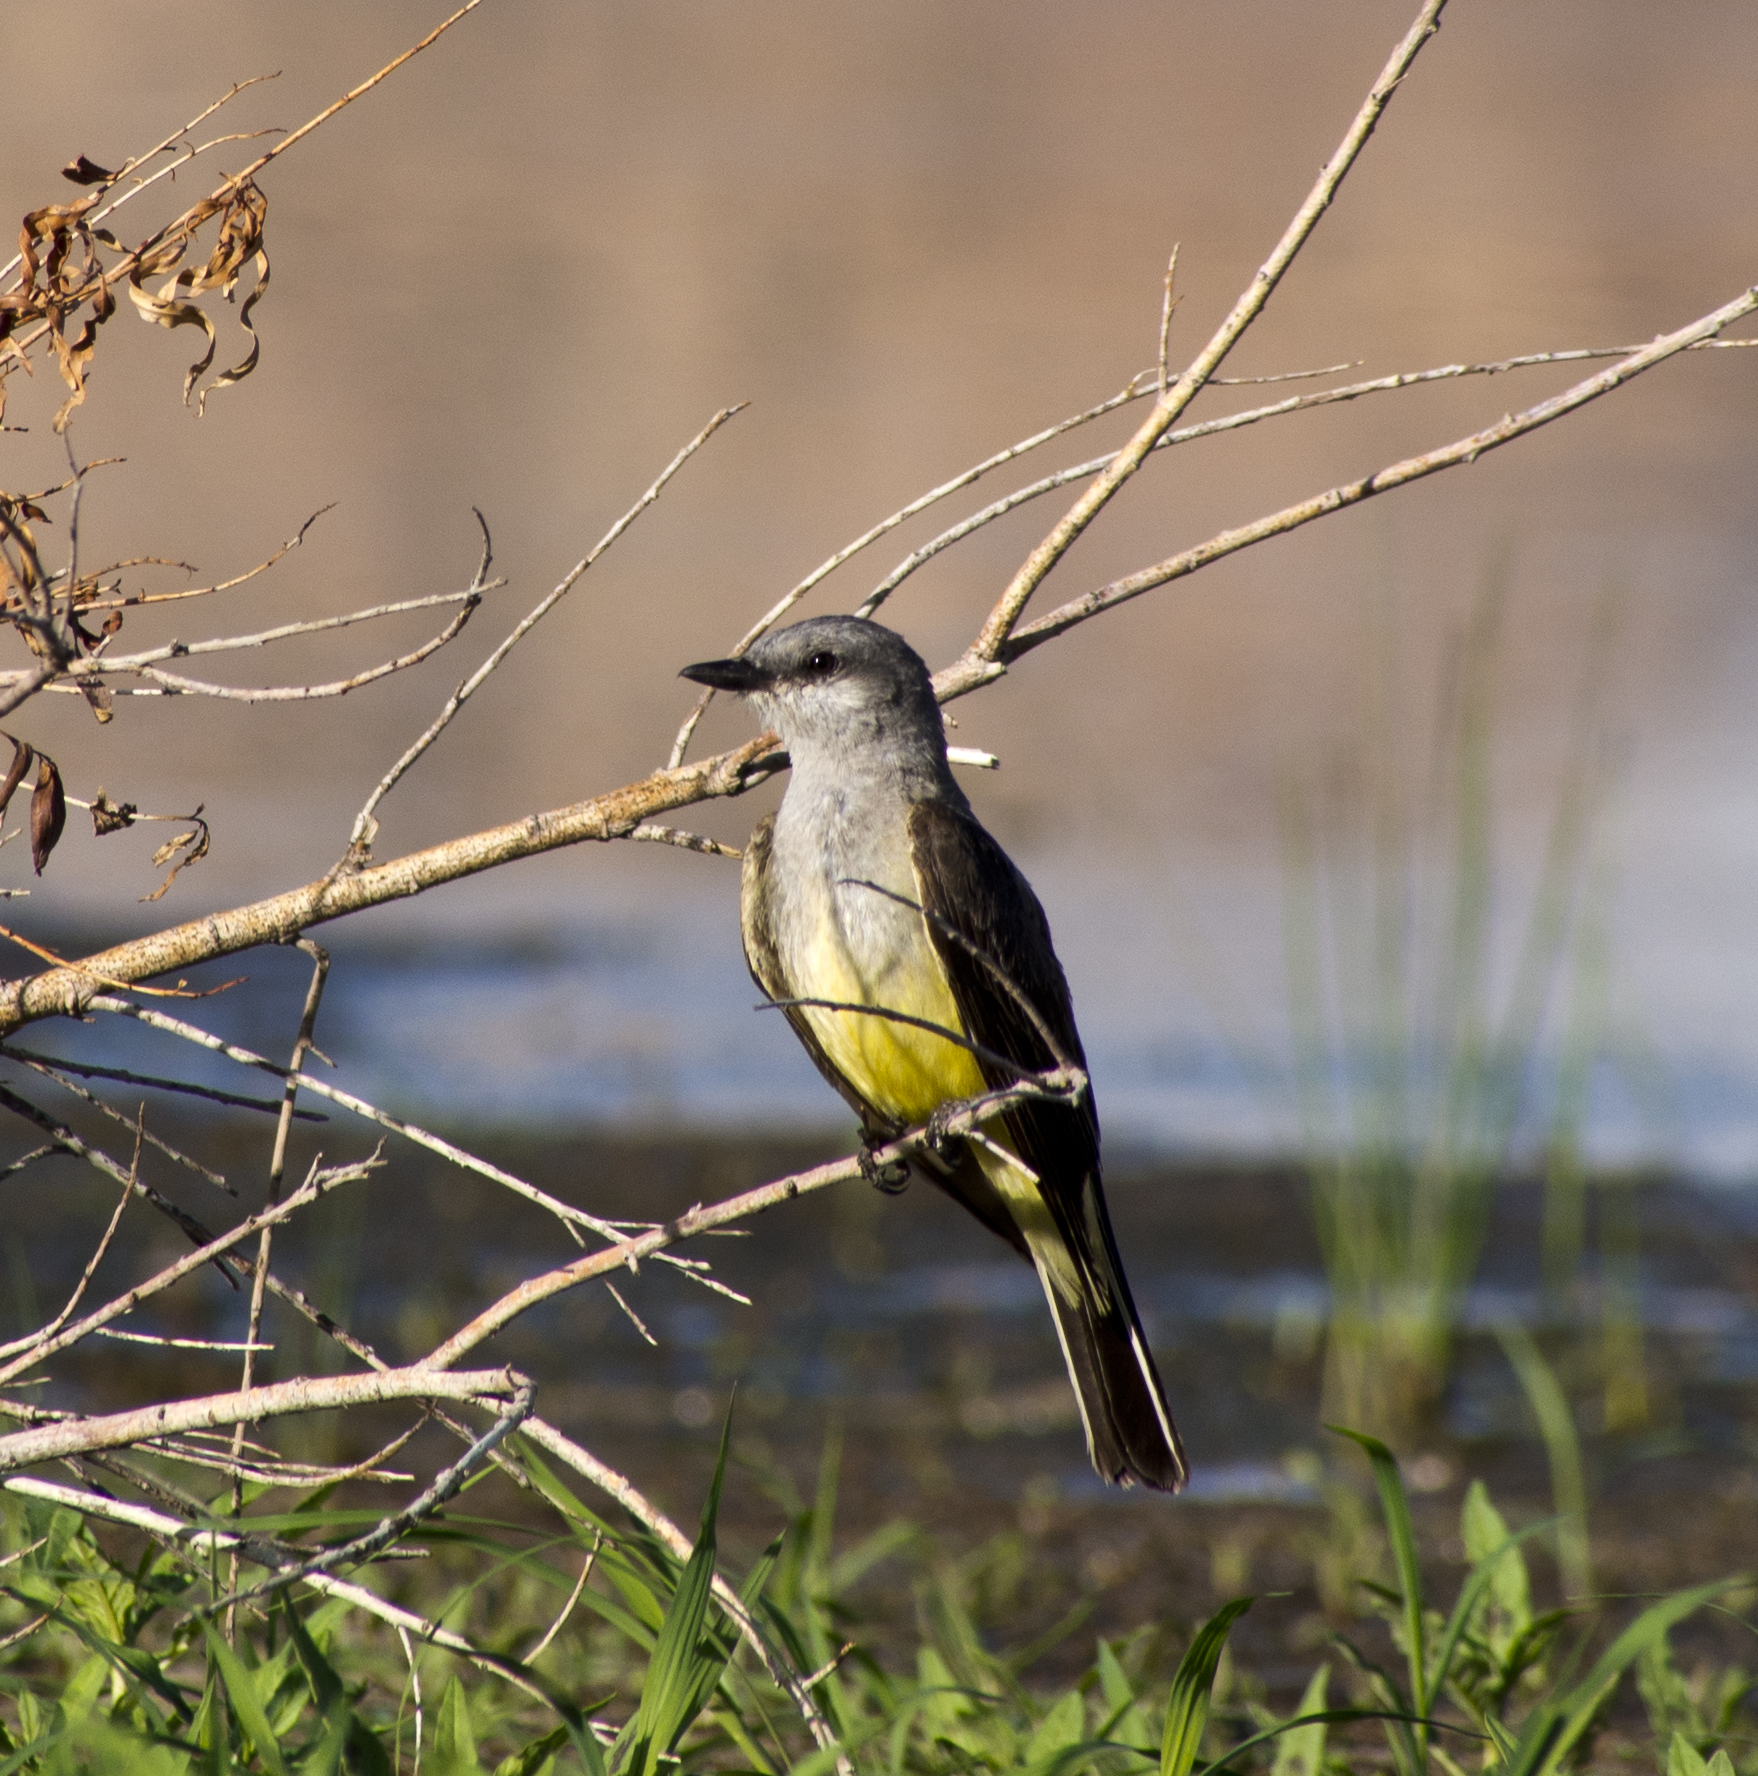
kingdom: Animalia
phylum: Chordata
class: Aves
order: Passeriformes
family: Tyrannidae
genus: Tyrannus
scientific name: Tyrannus verticalis
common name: Western kingbird
